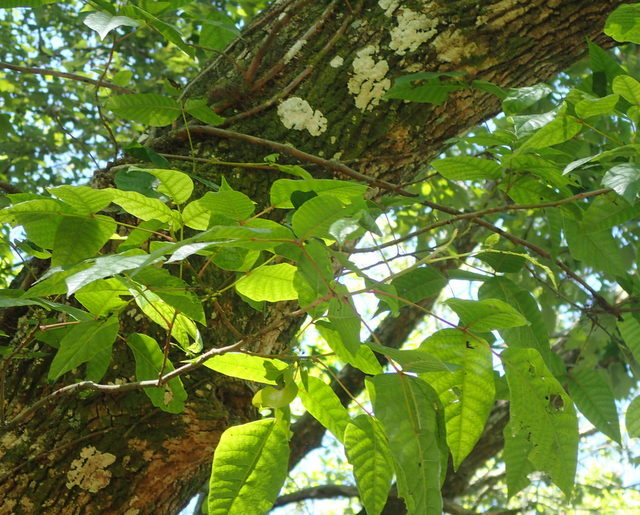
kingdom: Plantae
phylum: Tracheophyta
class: Magnoliopsida
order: Sapindales
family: Anacardiaceae
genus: Toxicodendron
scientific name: Toxicodendron radicans
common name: Poison ivy
